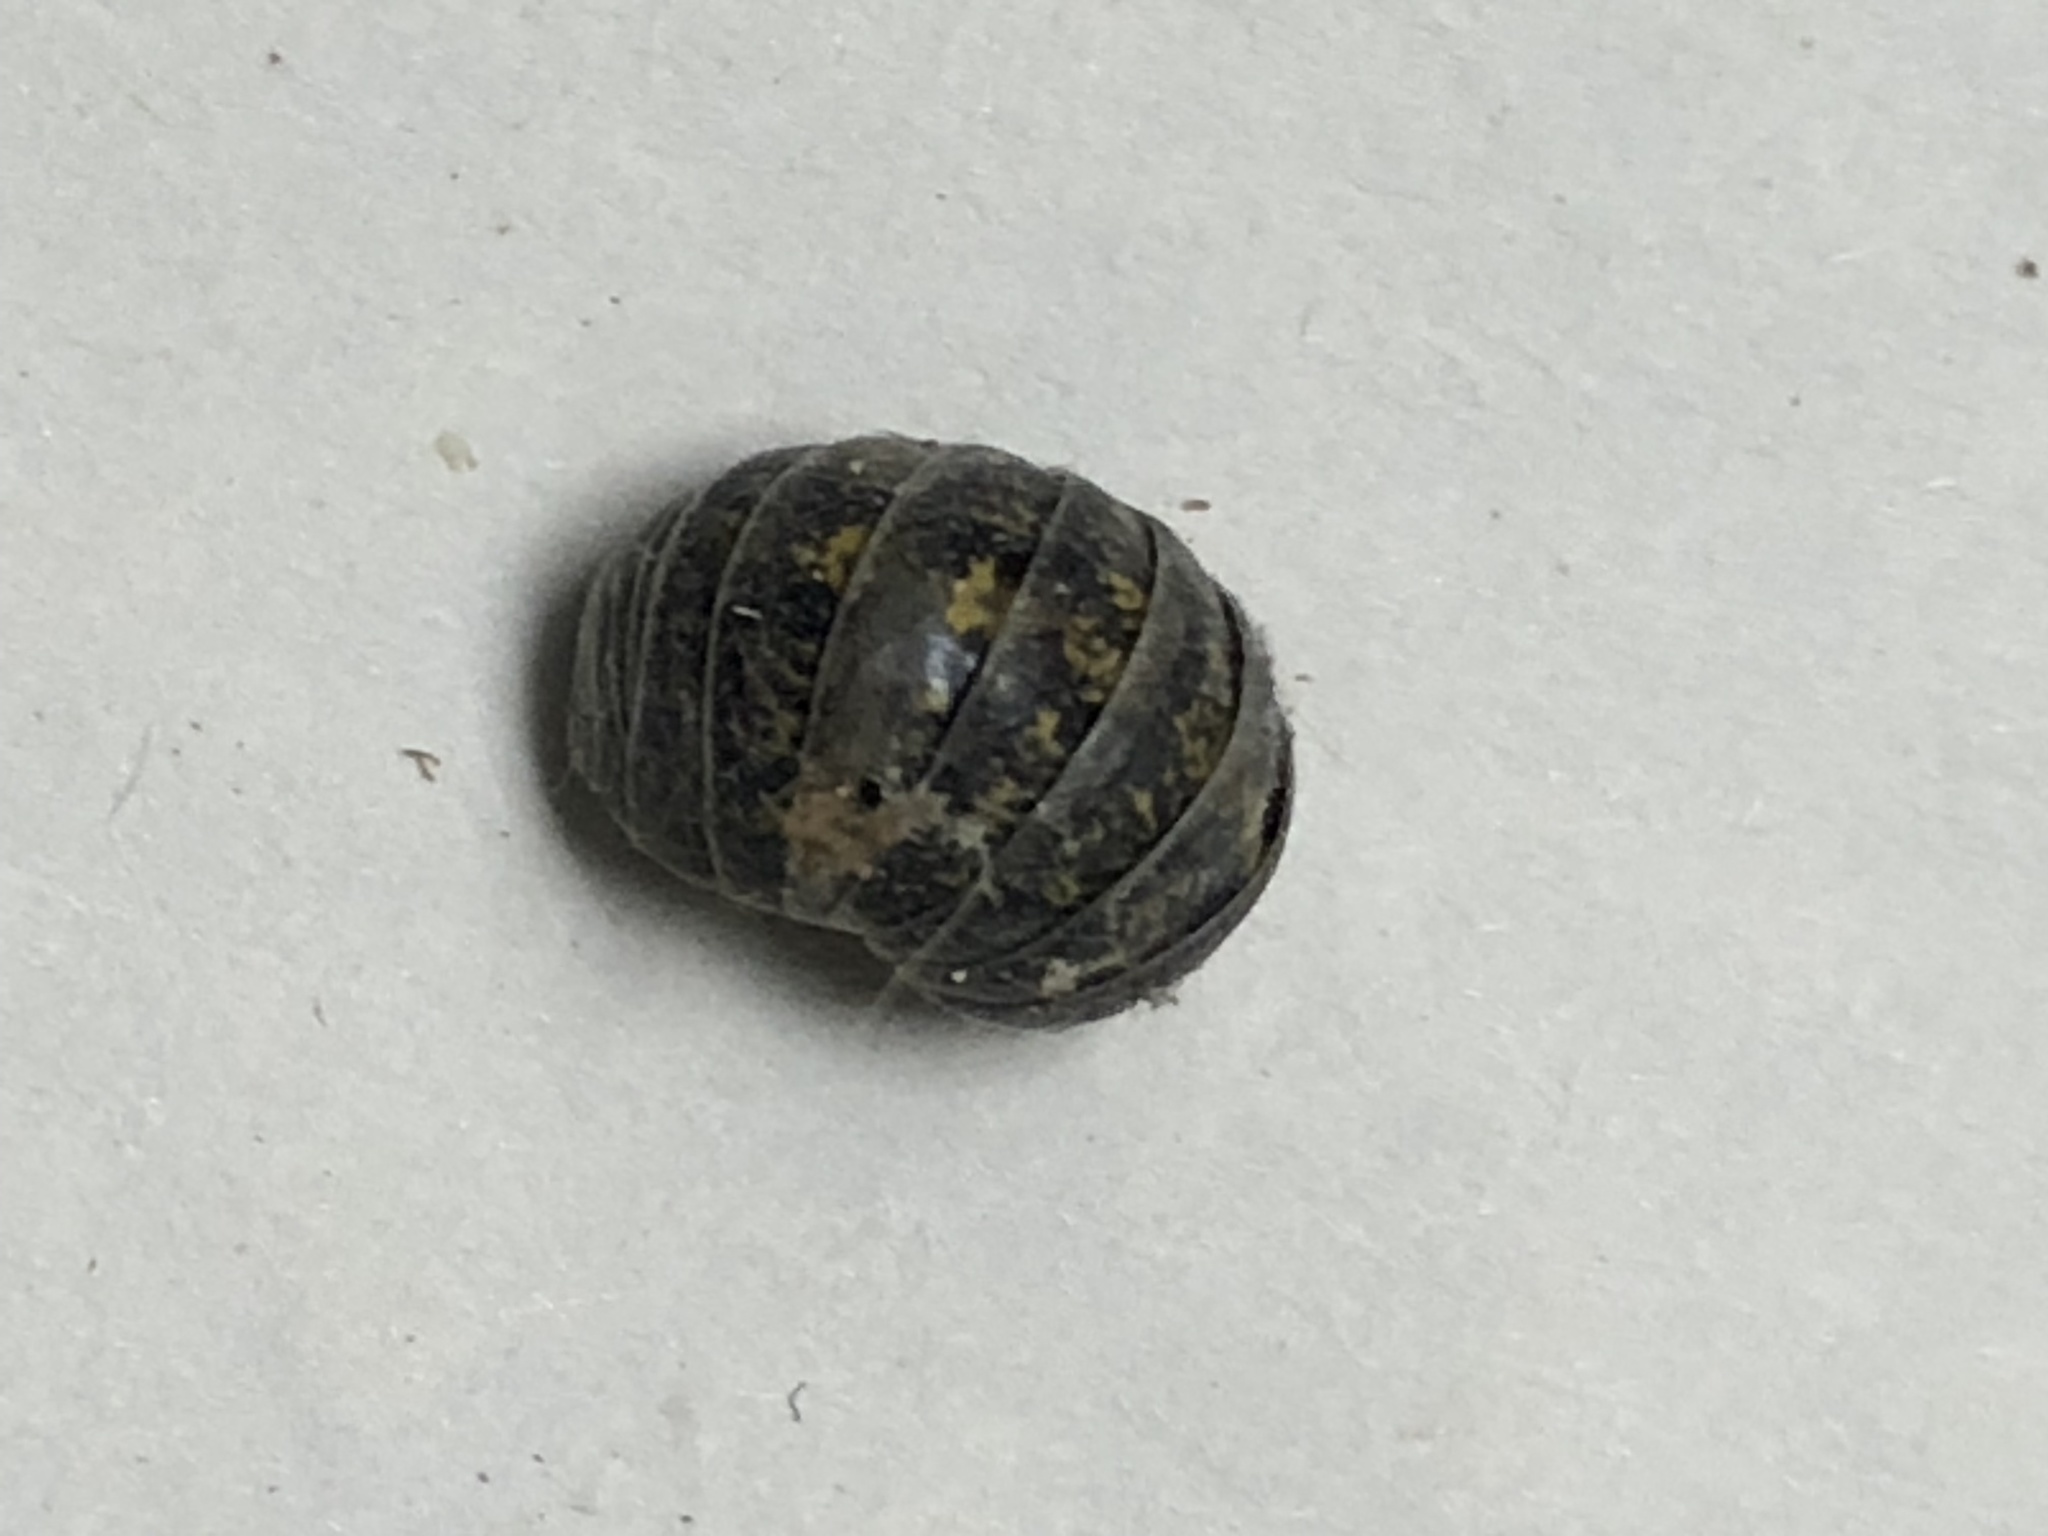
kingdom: Animalia
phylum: Arthropoda
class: Malacostraca
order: Isopoda
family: Armadillidiidae
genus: Armadillidium
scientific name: Armadillidium vulgare
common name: Common pill woodlouse
